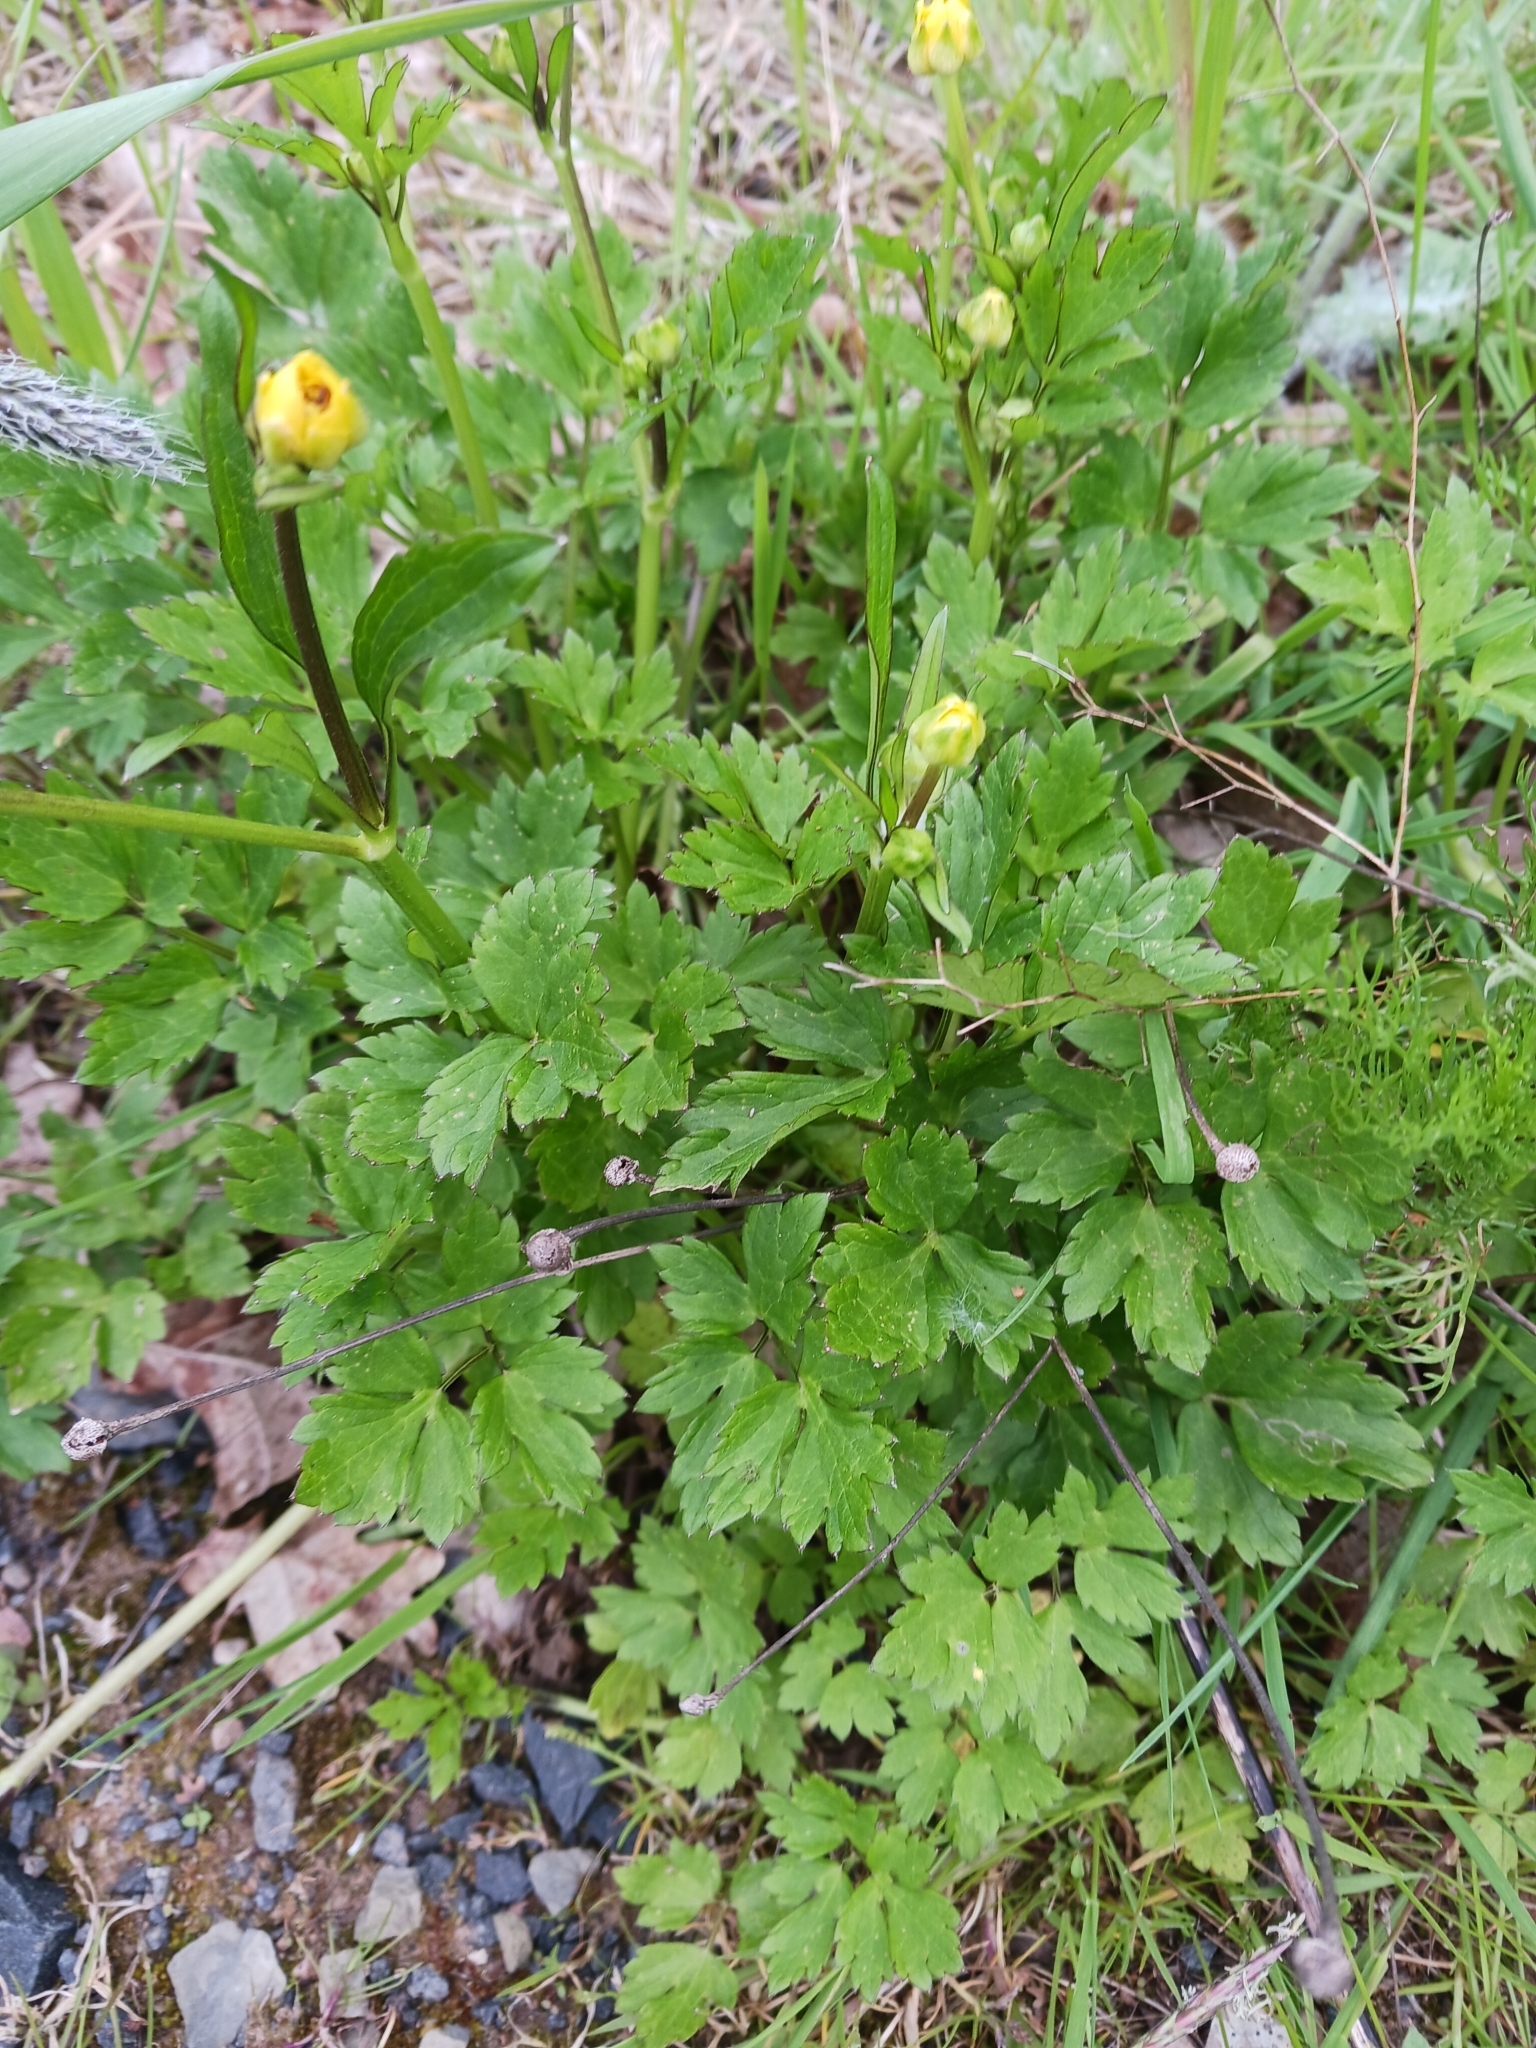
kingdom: Plantae
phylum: Tracheophyta
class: Magnoliopsida
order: Ranunculales
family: Ranunculaceae
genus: Ranunculus
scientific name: Ranunculus repens
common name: Creeping buttercup
